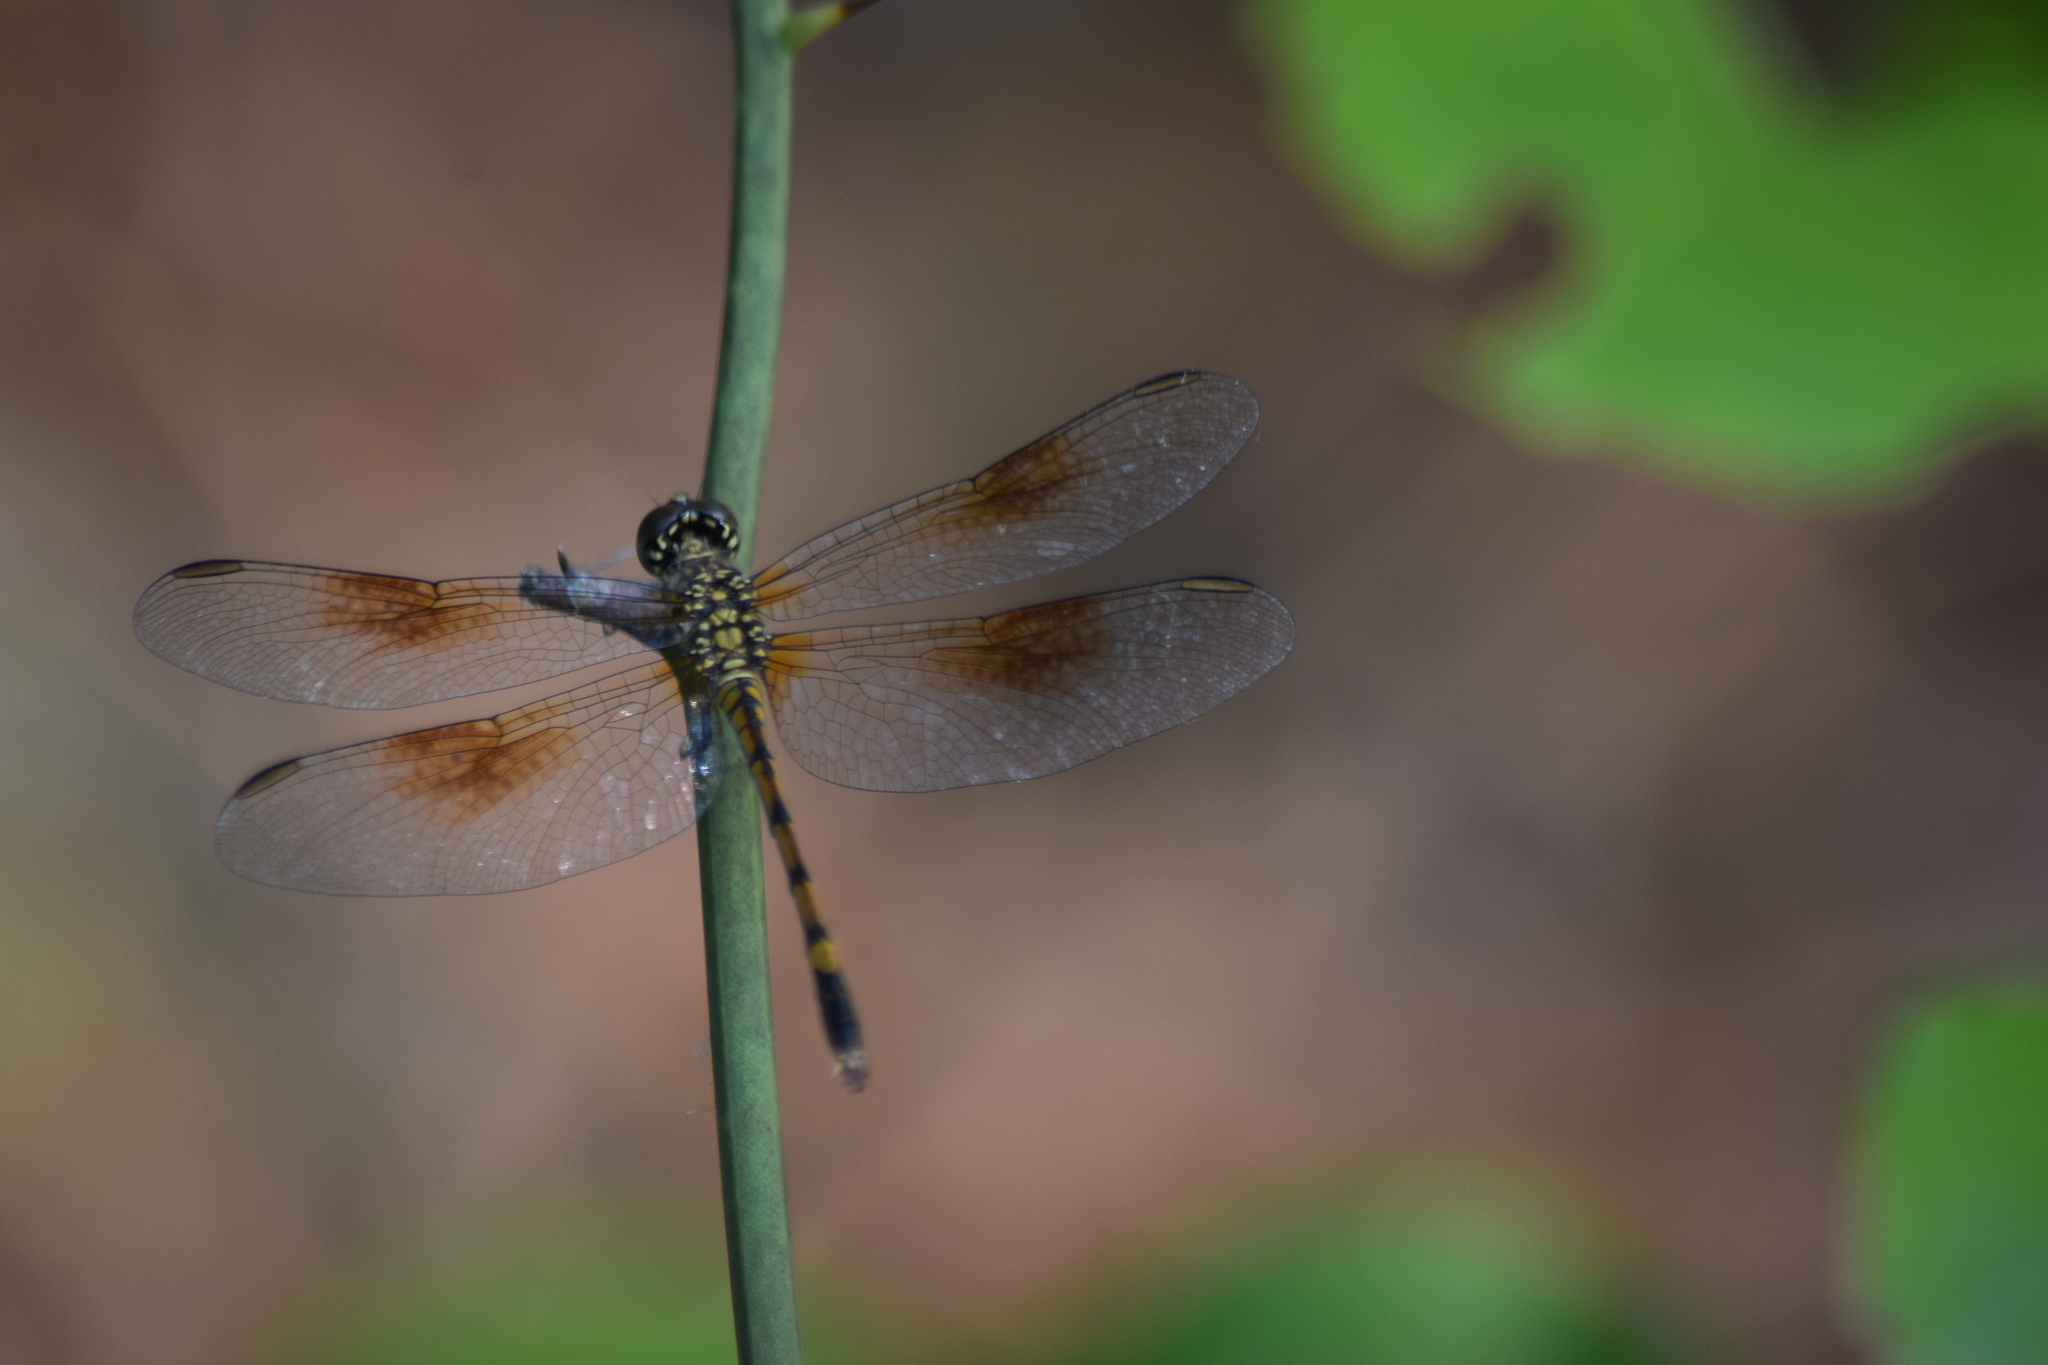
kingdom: Animalia
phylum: Arthropoda
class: Insecta
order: Odonata
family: Libellulidae
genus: Erythrodiplax
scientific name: Erythrodiplax berenice
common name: Seaside dragonlet
